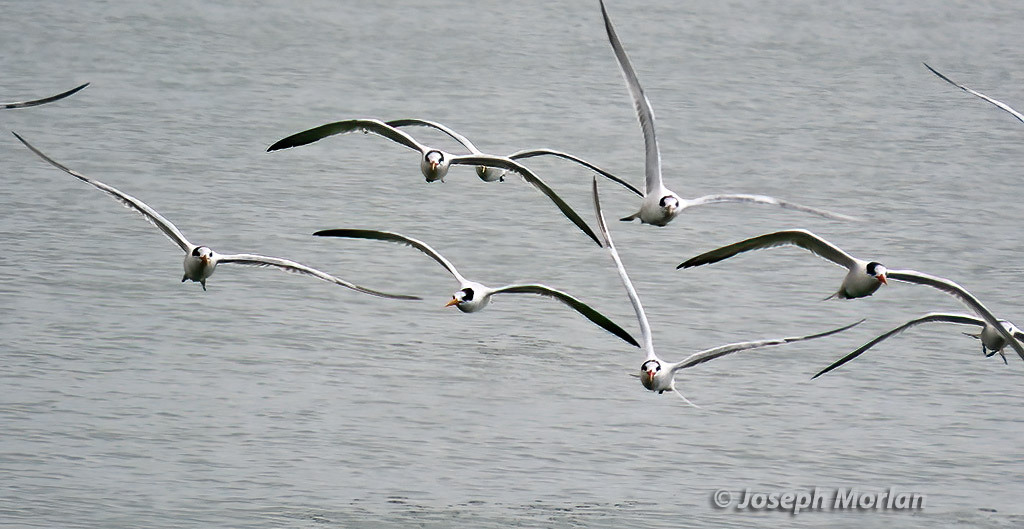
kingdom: Animalia
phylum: Chordata
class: Aves
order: Charadriiformes
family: Laridae
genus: Thalasseus
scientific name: Thalasseus elegans
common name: Elegant tern
